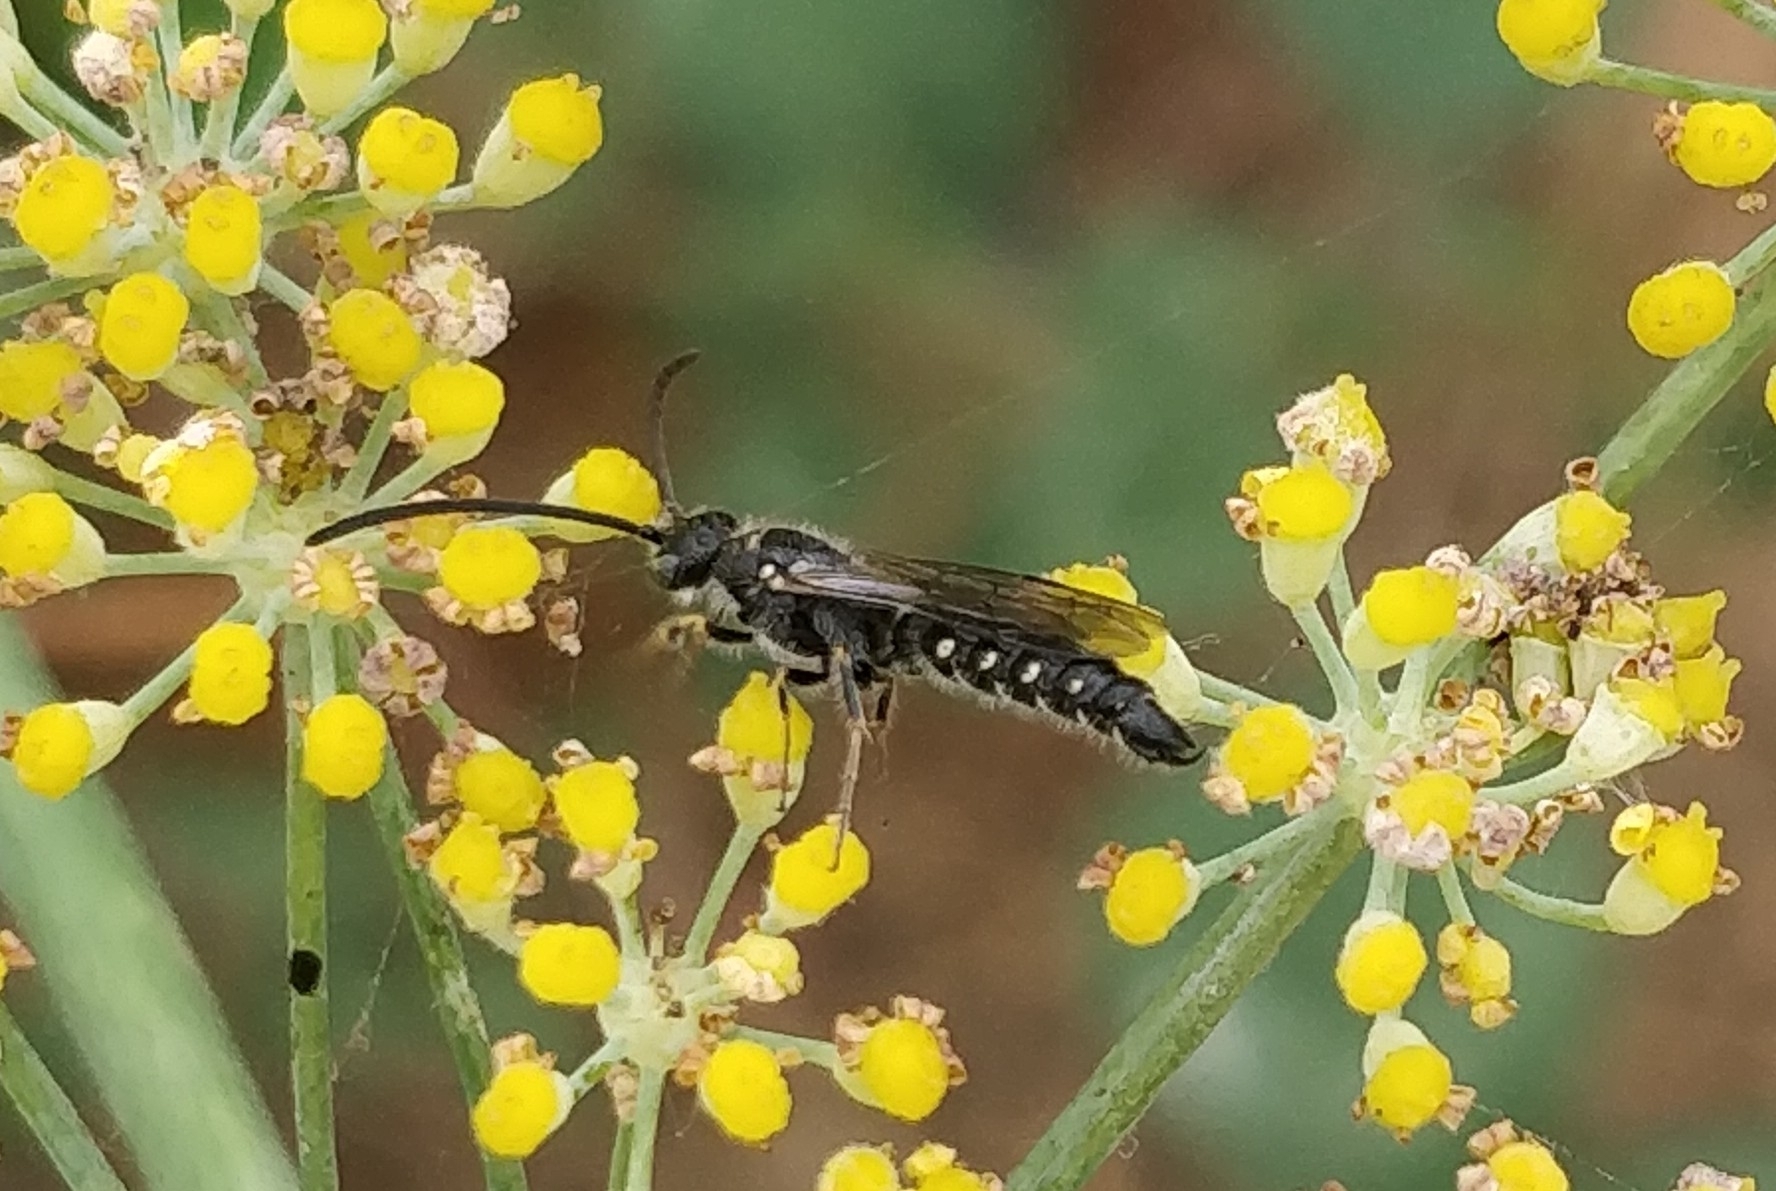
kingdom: Animalia
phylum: Arthropoda
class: Insecta
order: Hymenoptera
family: Tiphiidae
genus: Poecilotiphia
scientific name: Poecilotiphia
